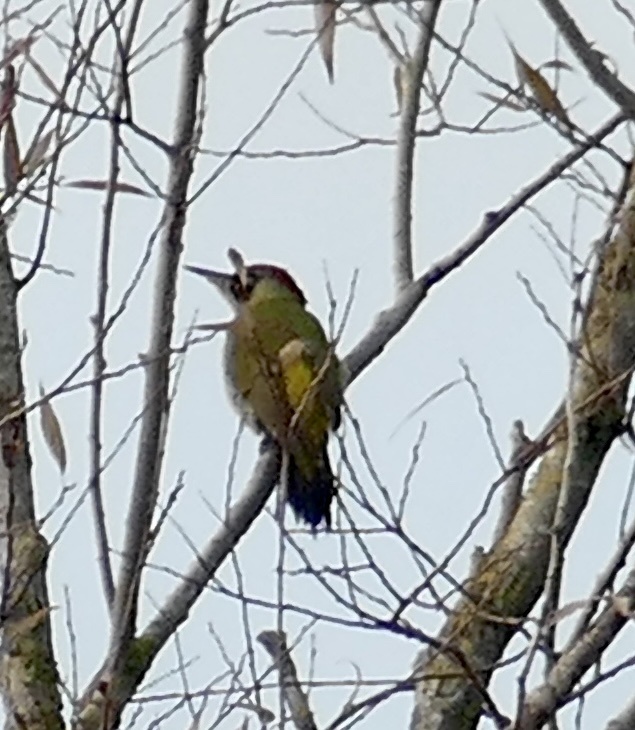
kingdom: Animalia
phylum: Chordata
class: Aves
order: Piciformes
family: Picidae
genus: Picus
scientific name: Picus viridis
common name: European green woodpecker
